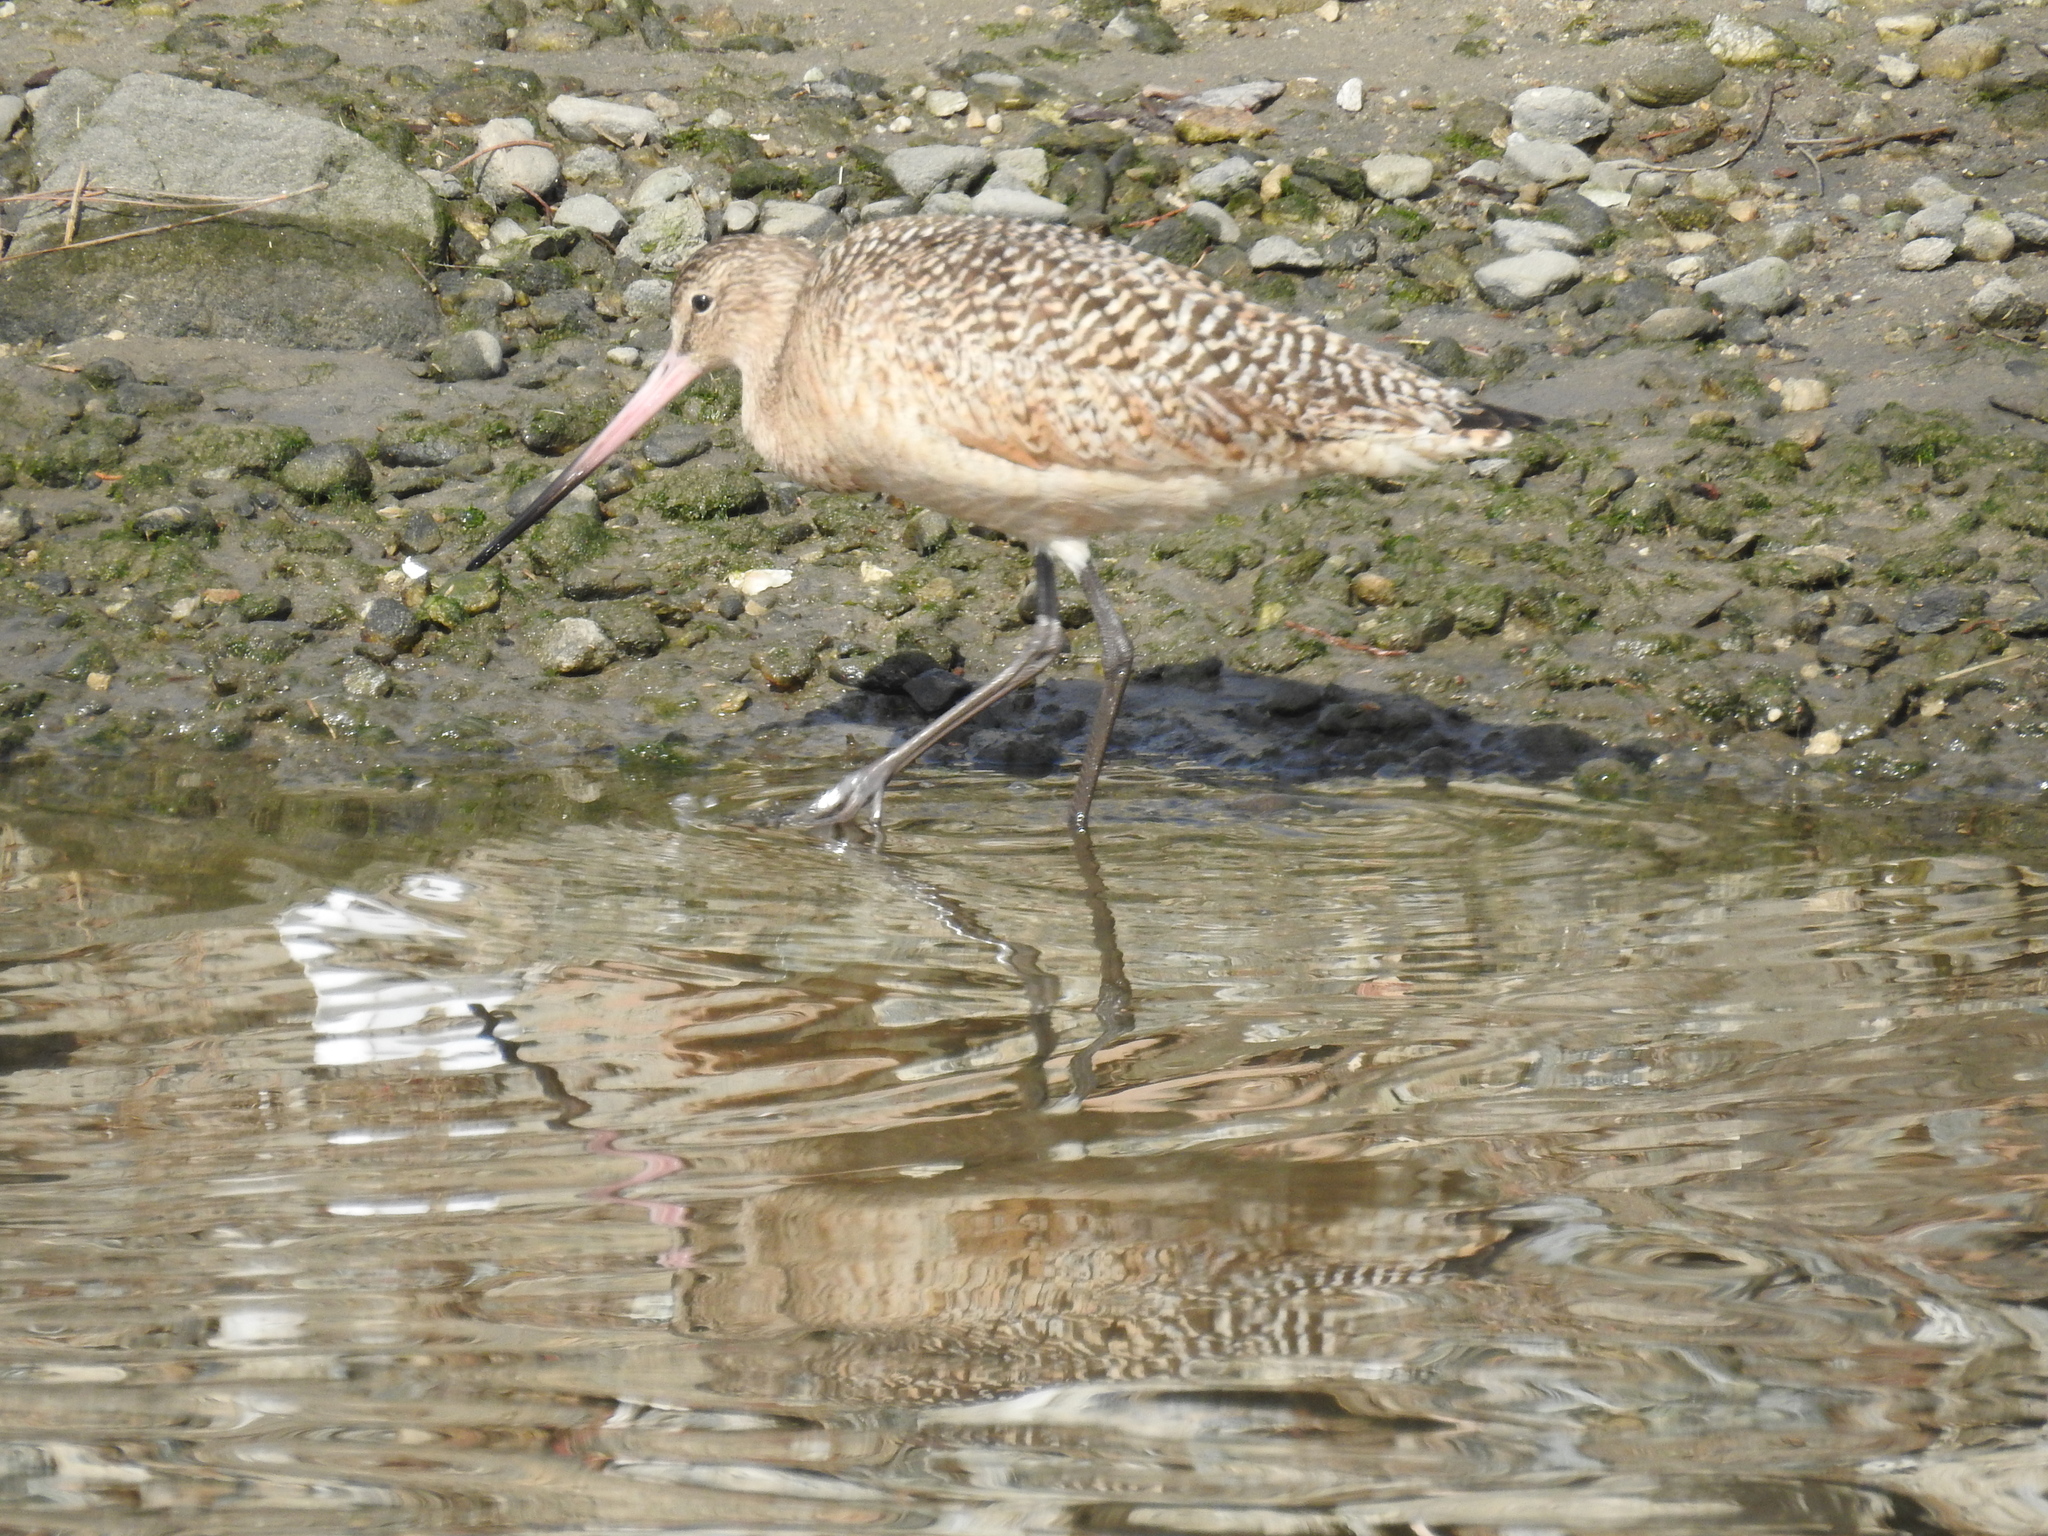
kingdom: Animalia
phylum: Chordata
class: Aves
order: Charadriiformes
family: Scolopacidae
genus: Limosa
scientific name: Limosa fedoa
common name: Marbled godwit
